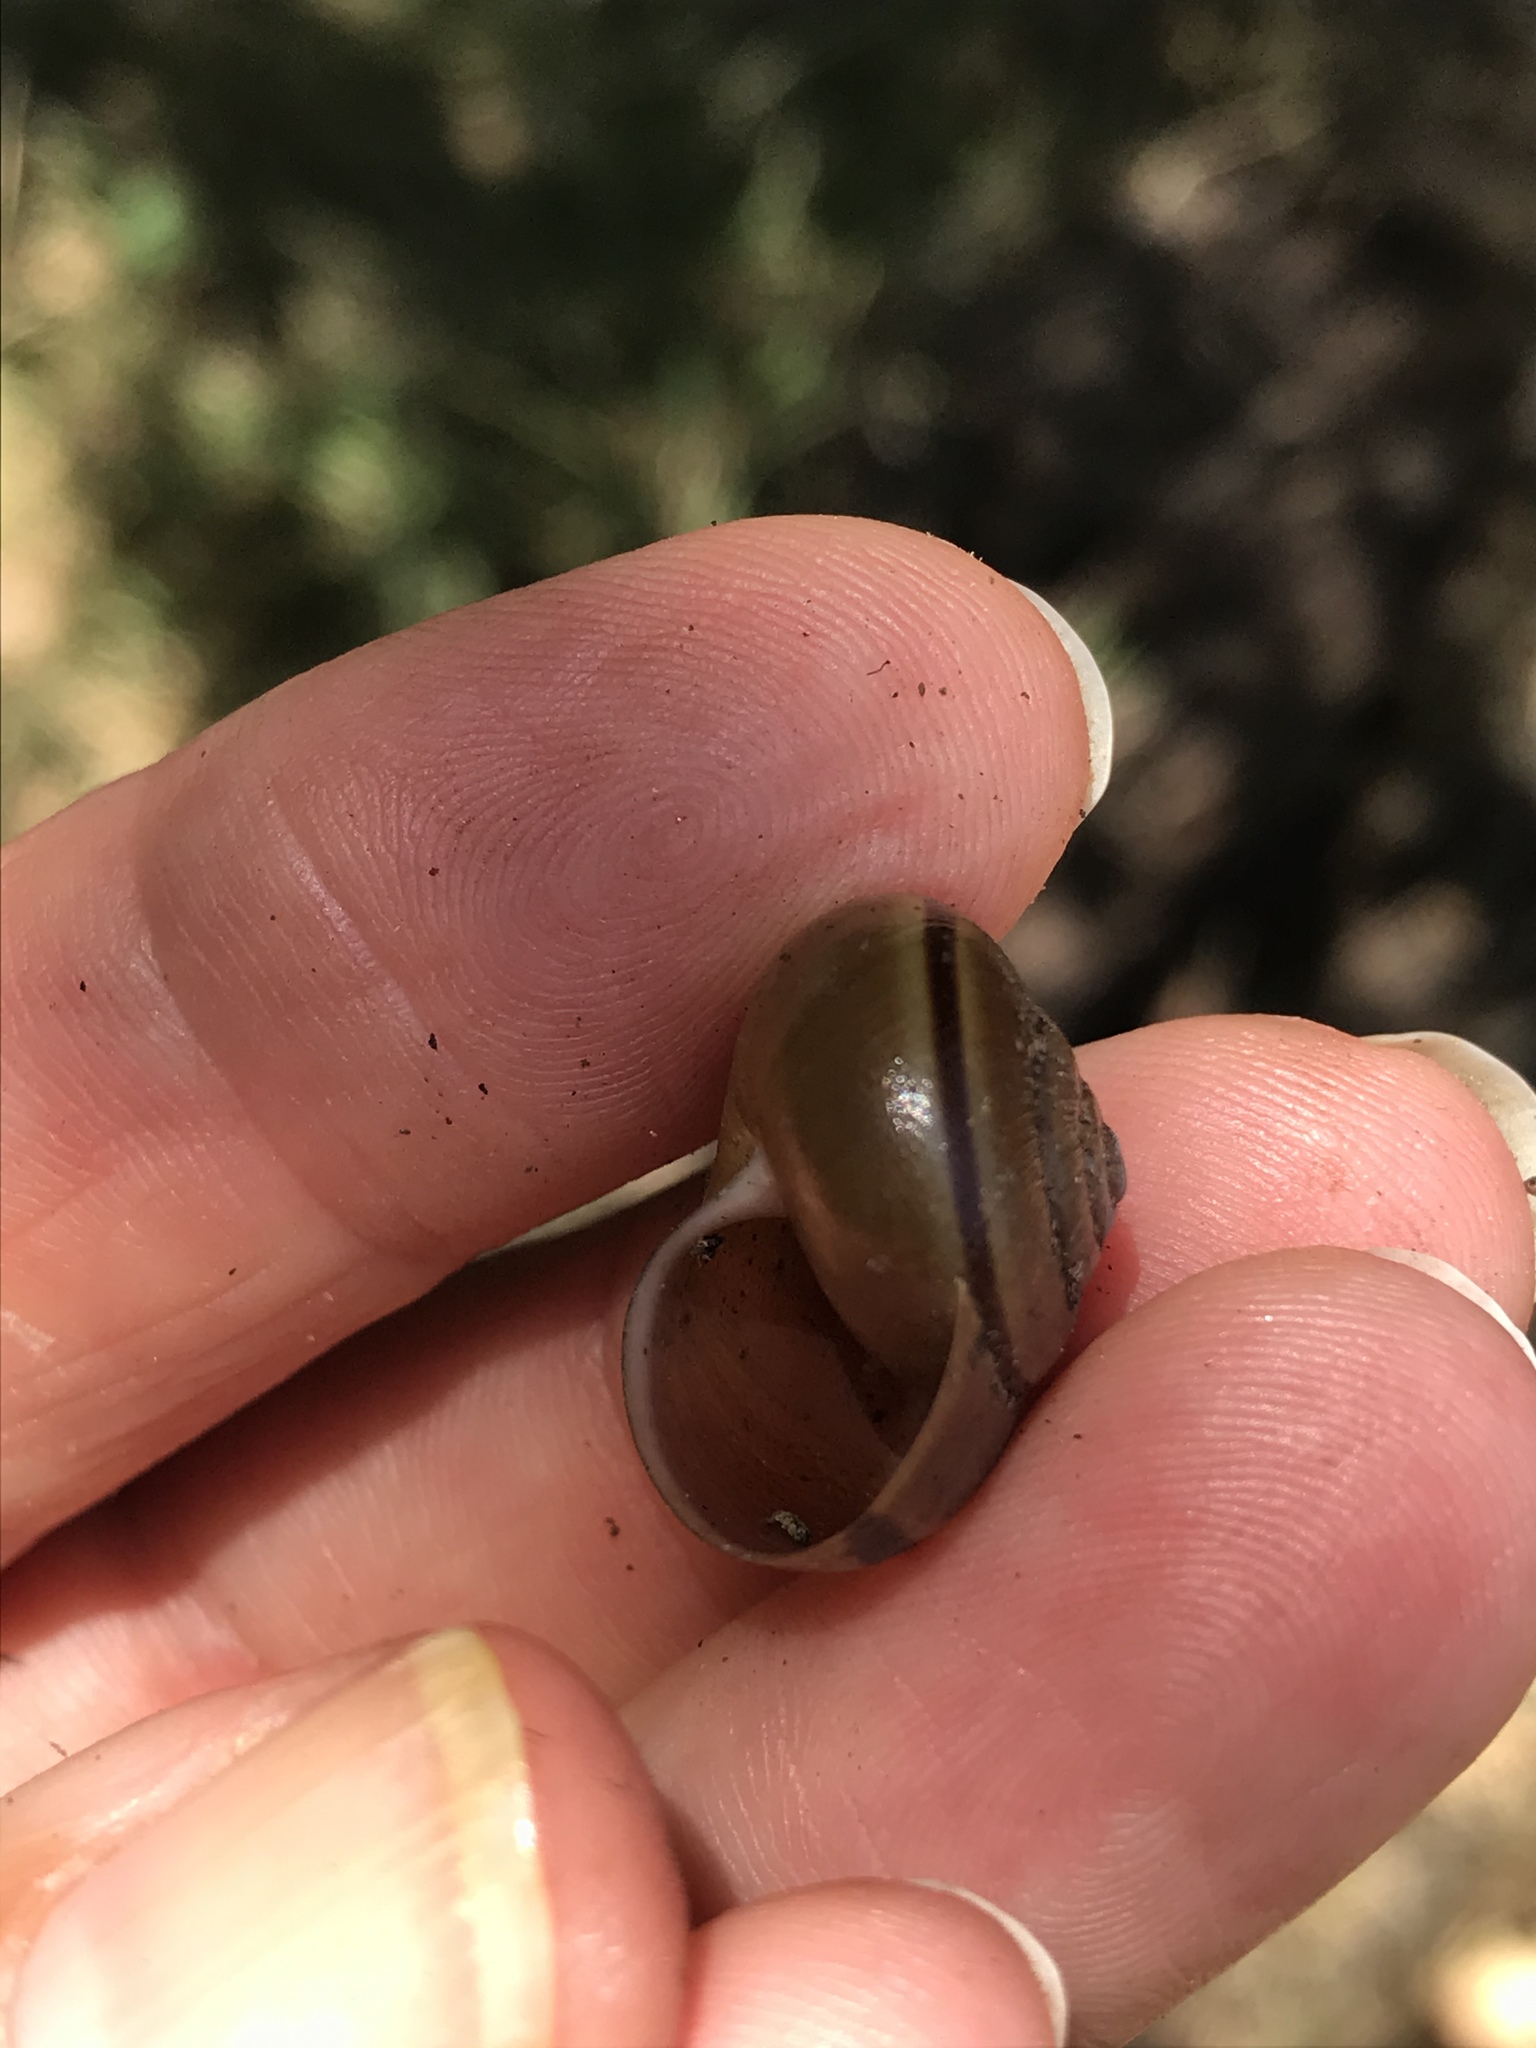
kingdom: Animalia
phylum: Mollusca
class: Gastropoda
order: Stylommatophora
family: Xanthonychidae
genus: Helminthoglypta
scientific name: Helminthoglypta tudiculata
